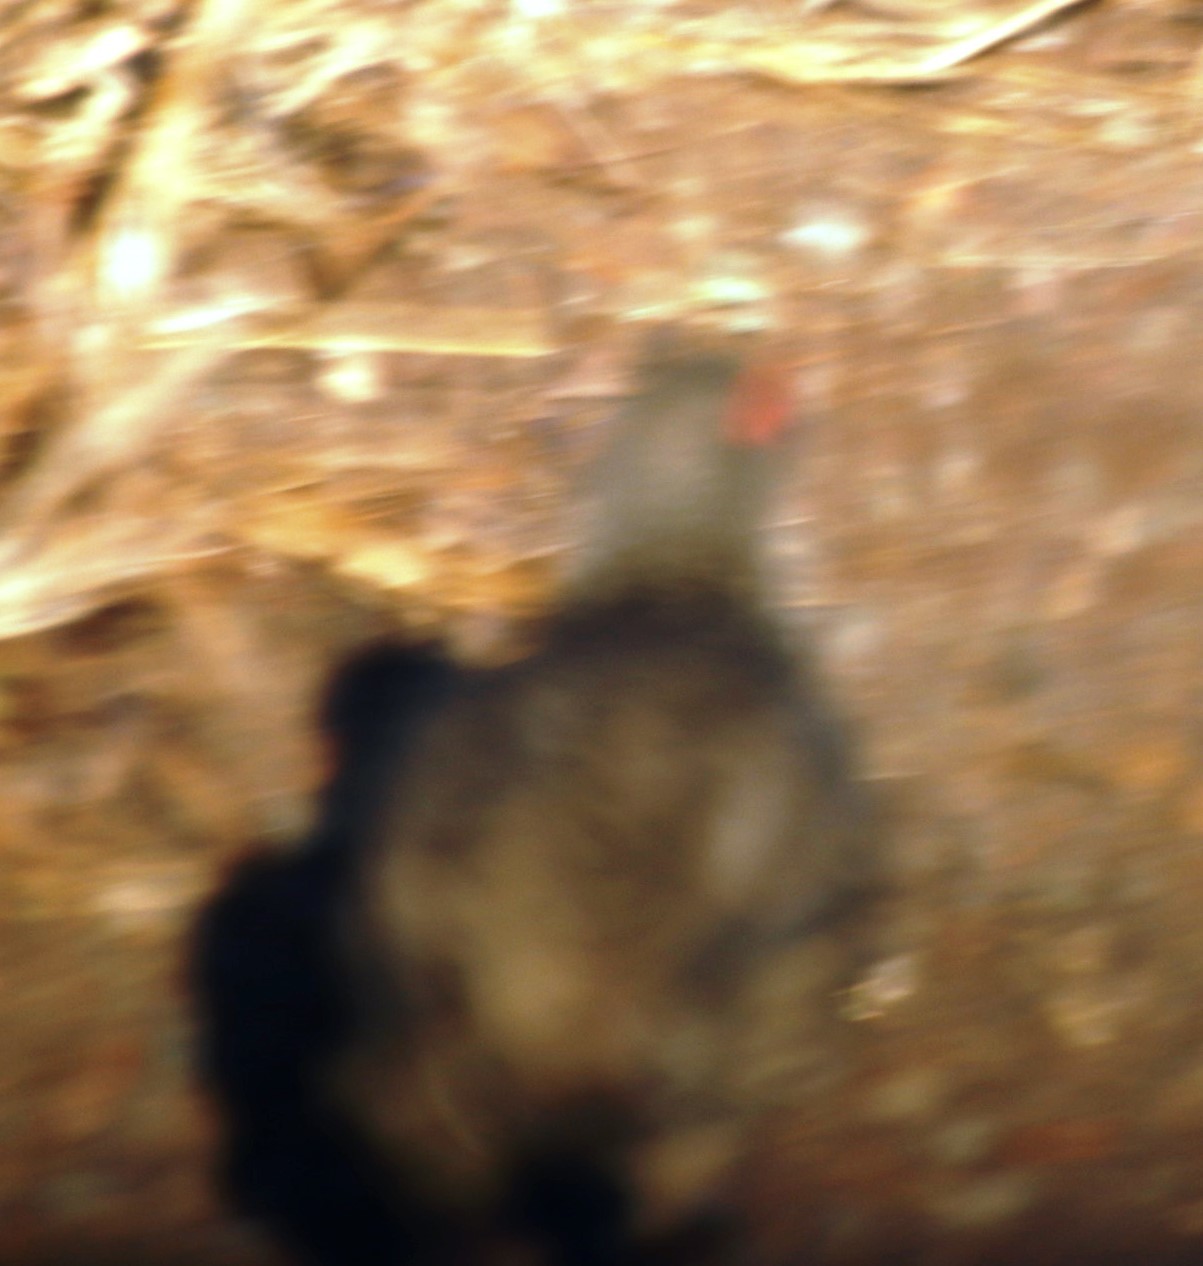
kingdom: Animalia
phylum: Chordata
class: Aves
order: Galliformes
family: Phasianidae
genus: Pternistis
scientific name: Pternistis swainsonii
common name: Swainson's spurfowl
